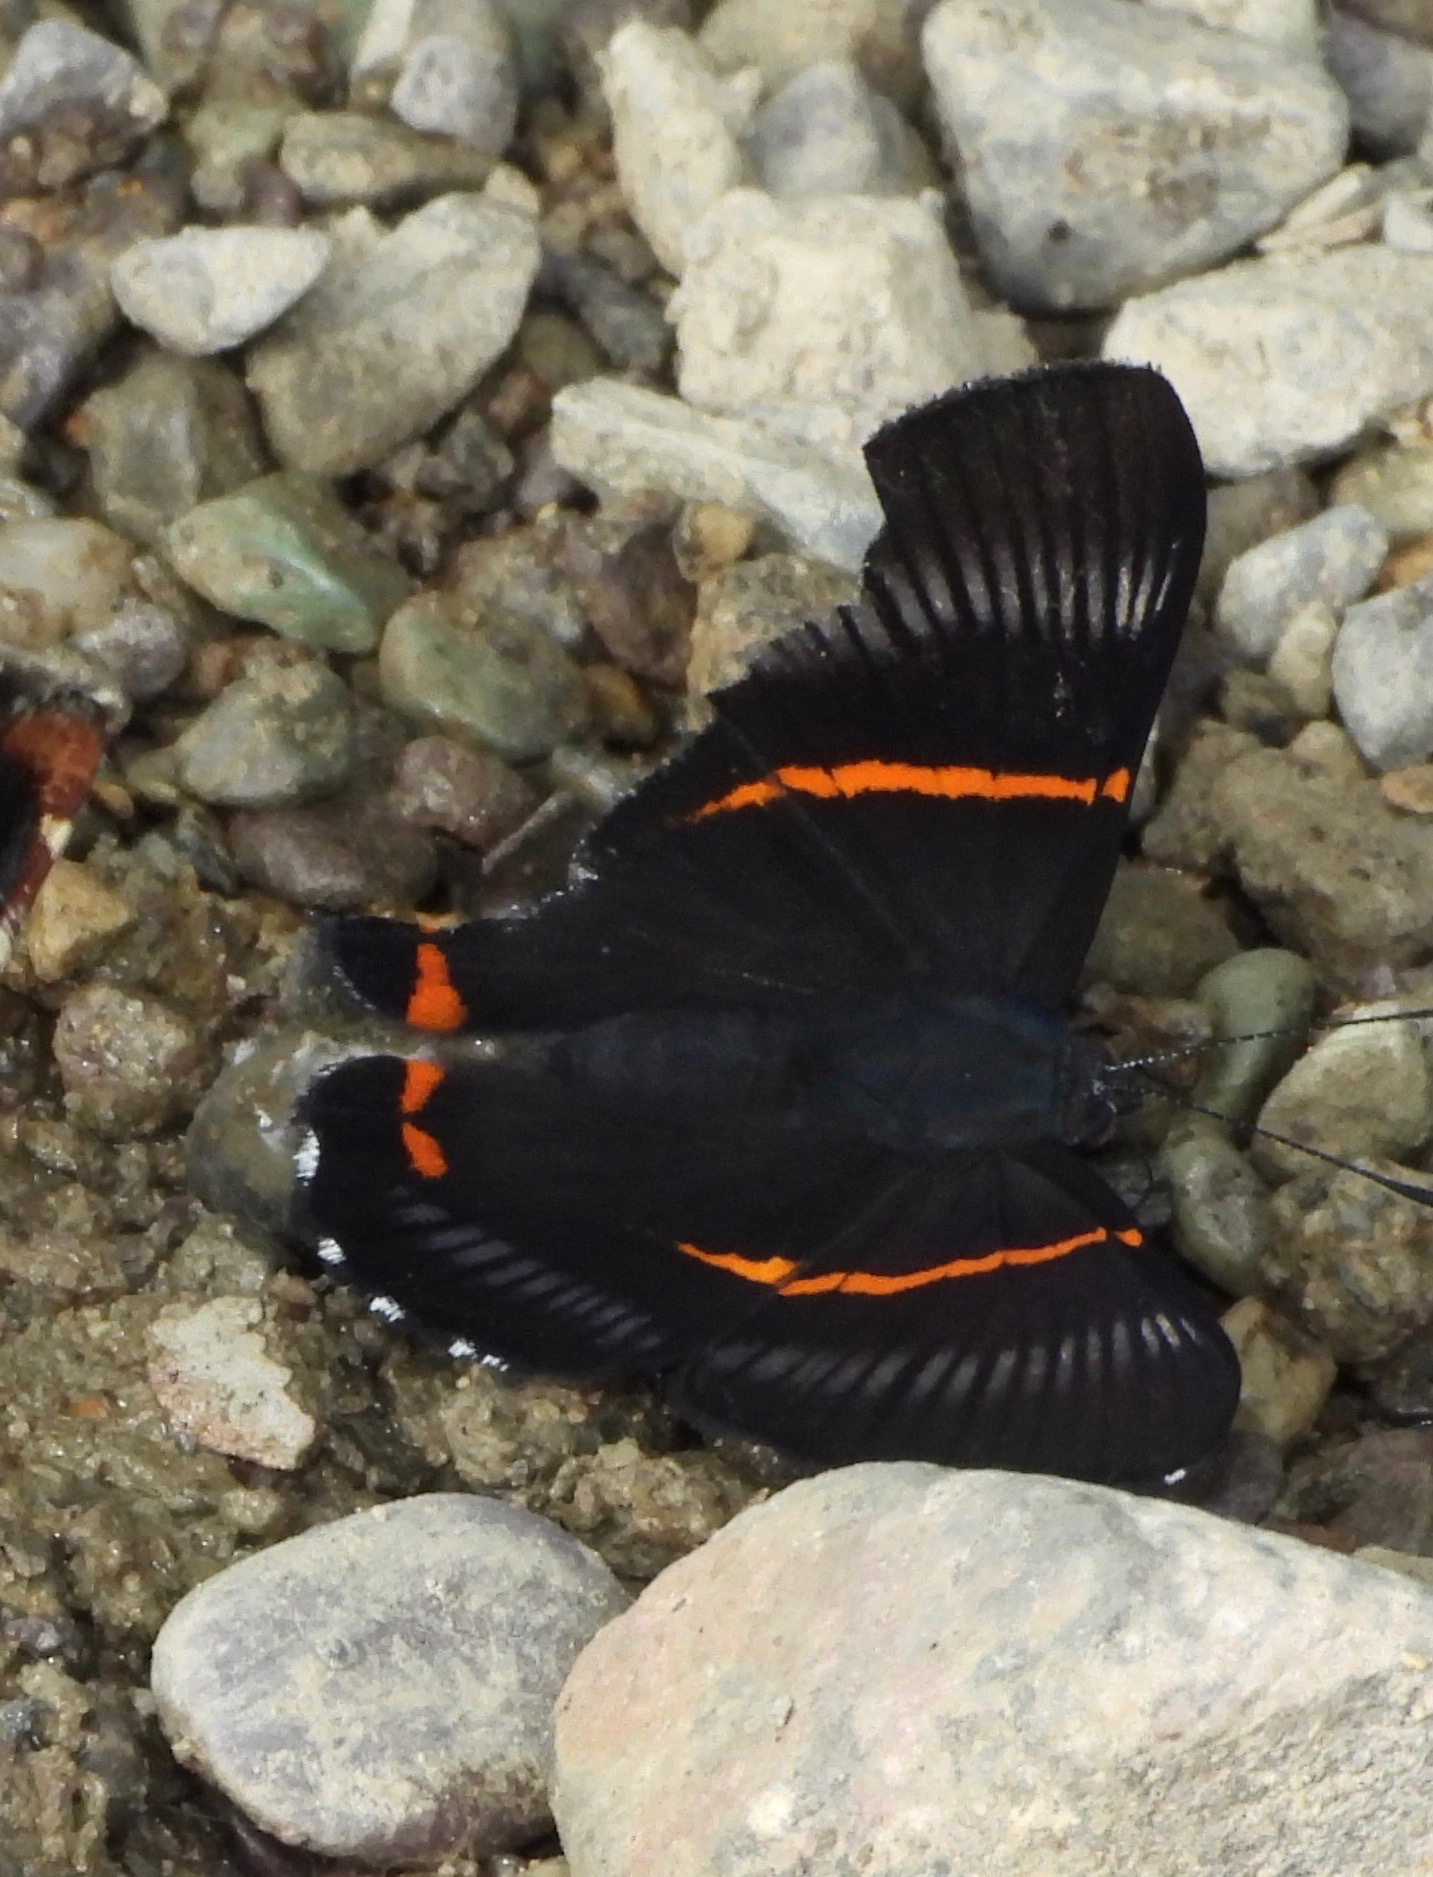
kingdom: Animalia
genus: Siseme
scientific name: Siseme aristoteles
